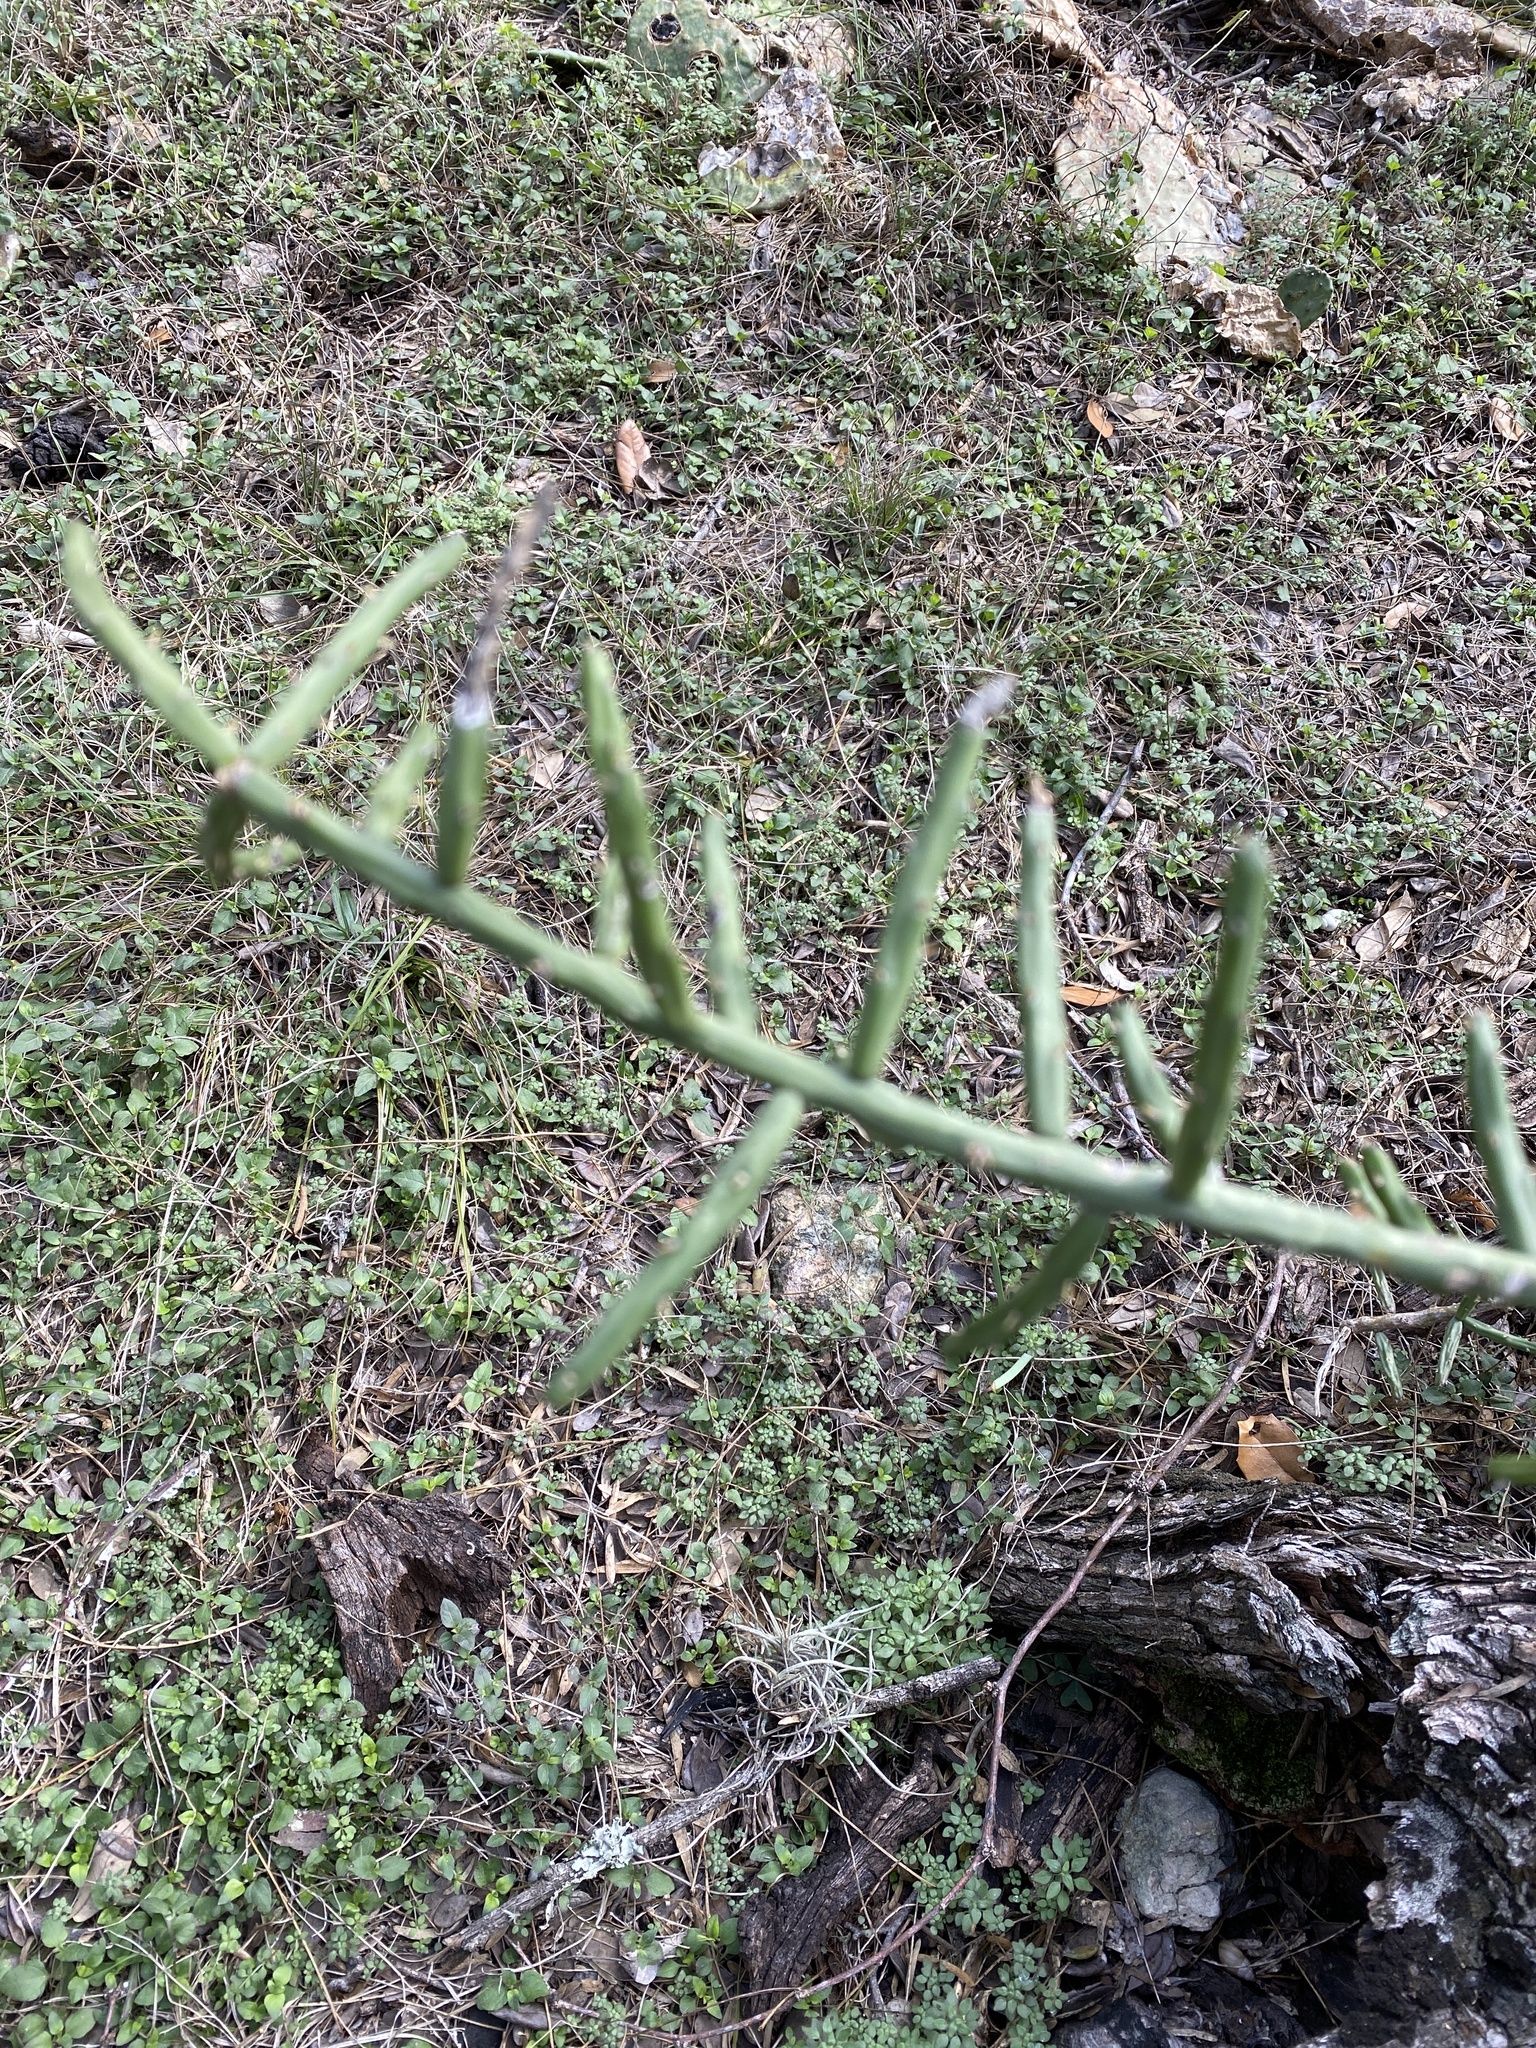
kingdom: Plantae
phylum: Tracheophyta
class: Magnoliopsida
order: Caryophyllales
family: Cactaceae
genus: Cylindropuntia
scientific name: Cylindropuntia leptocaulis
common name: Christmas cactus
